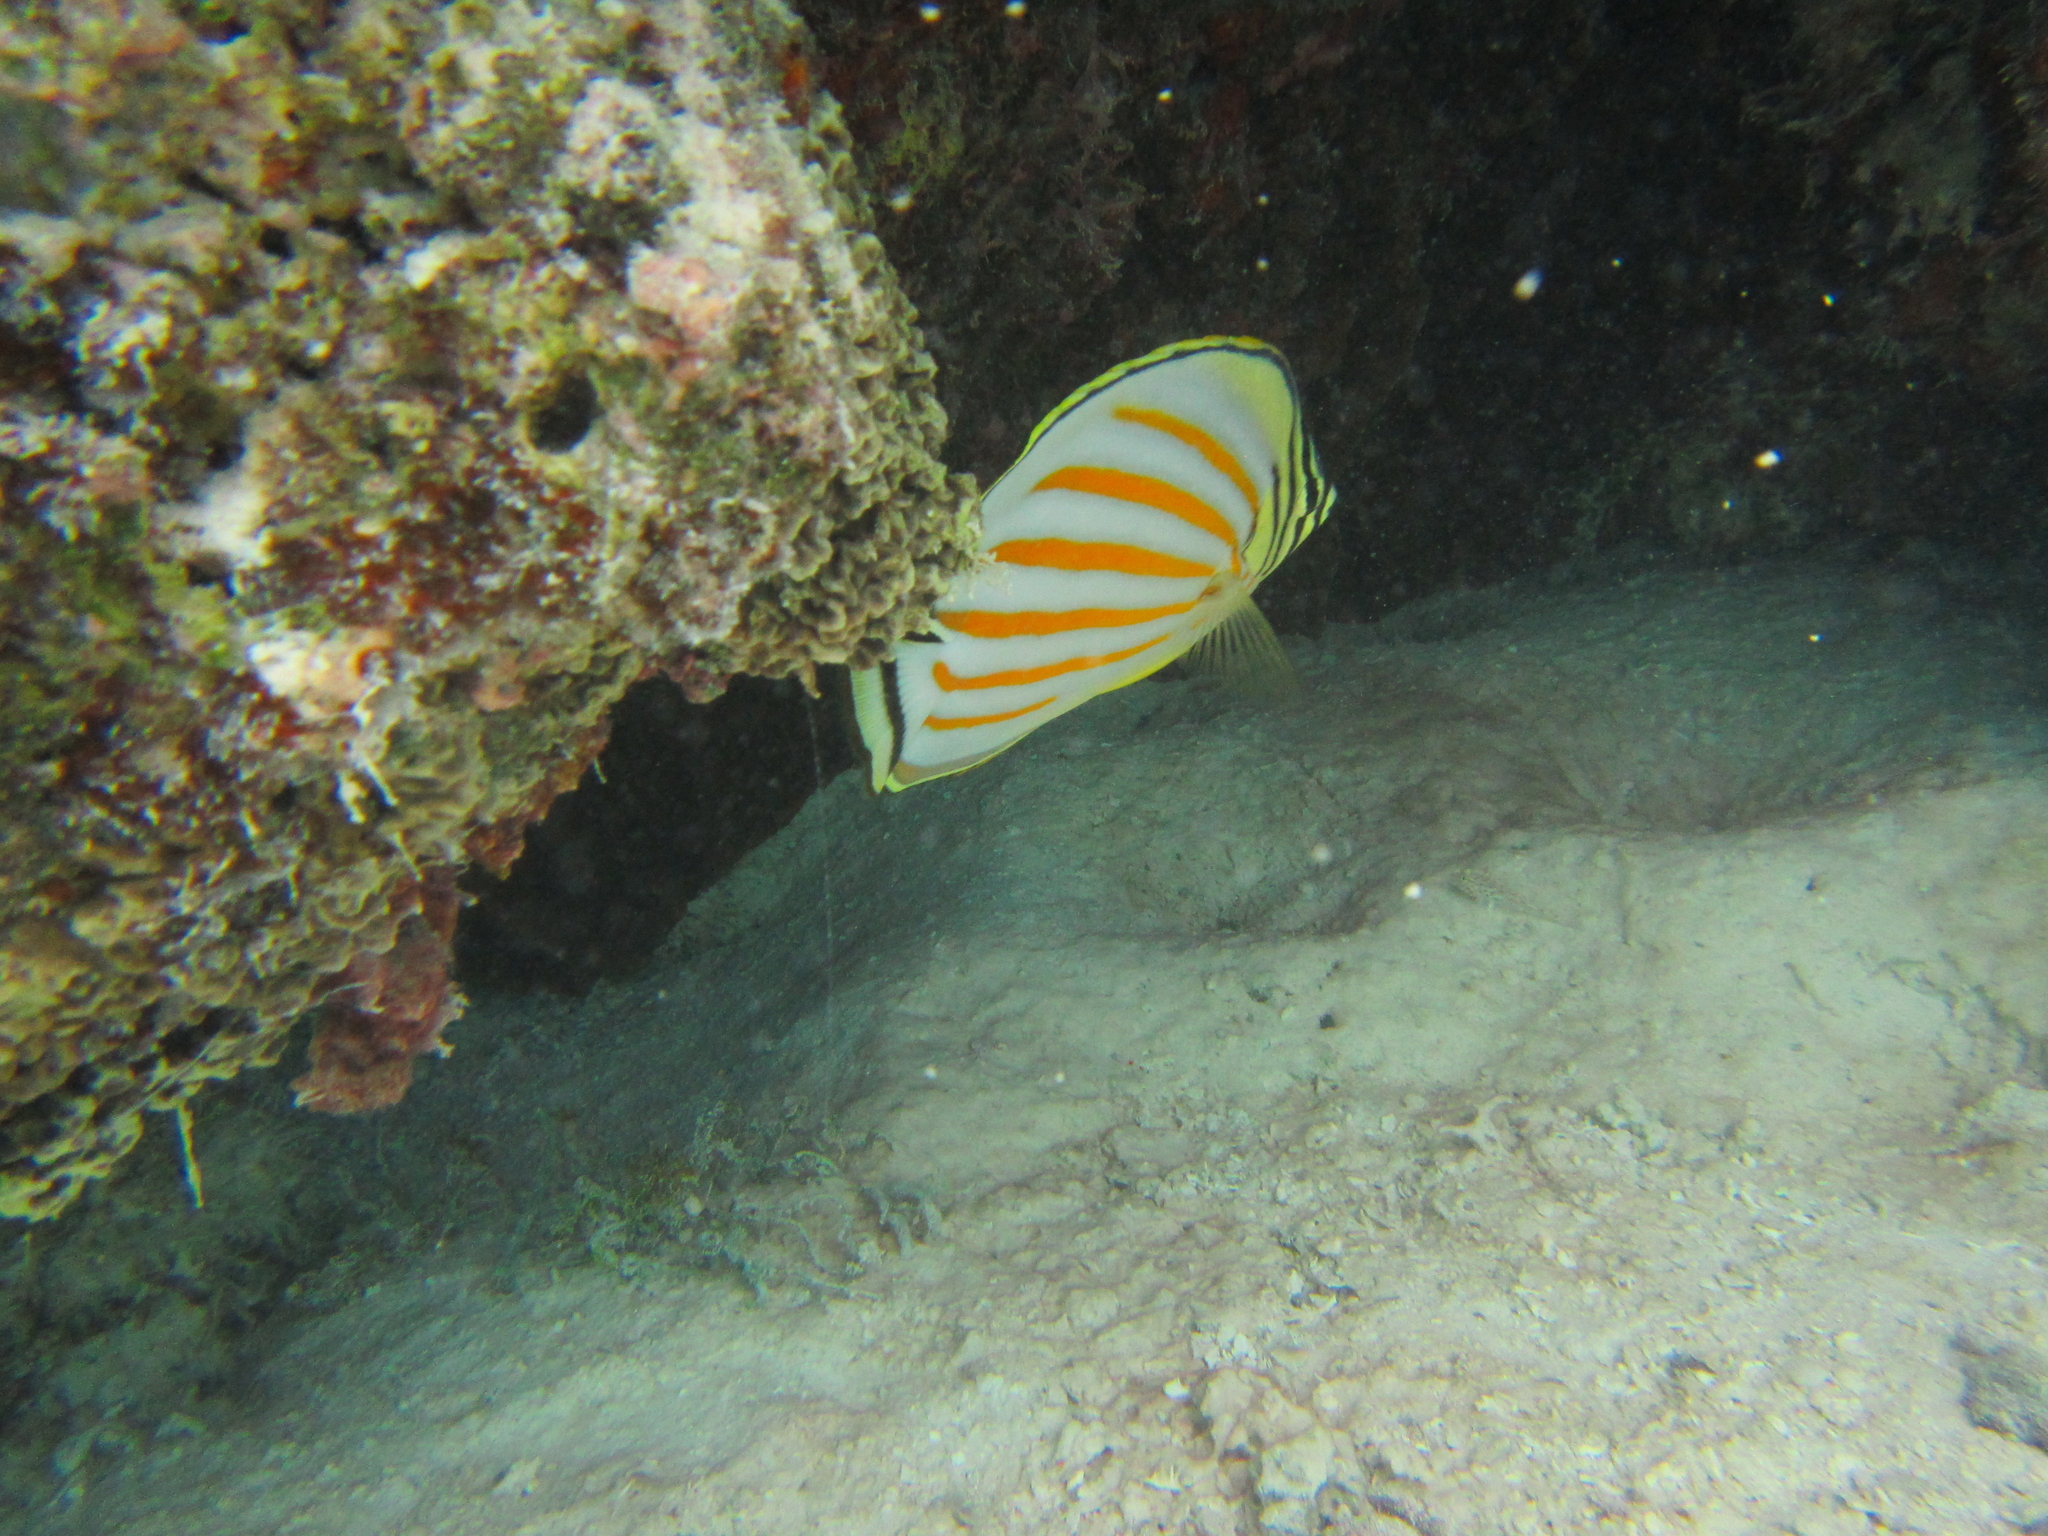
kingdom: Animalia
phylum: Chordata
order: Perciformes
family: Chaetodontidae
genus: Chaetodon
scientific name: Chaetodon ornatissimus
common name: Ornate butterflyfish
